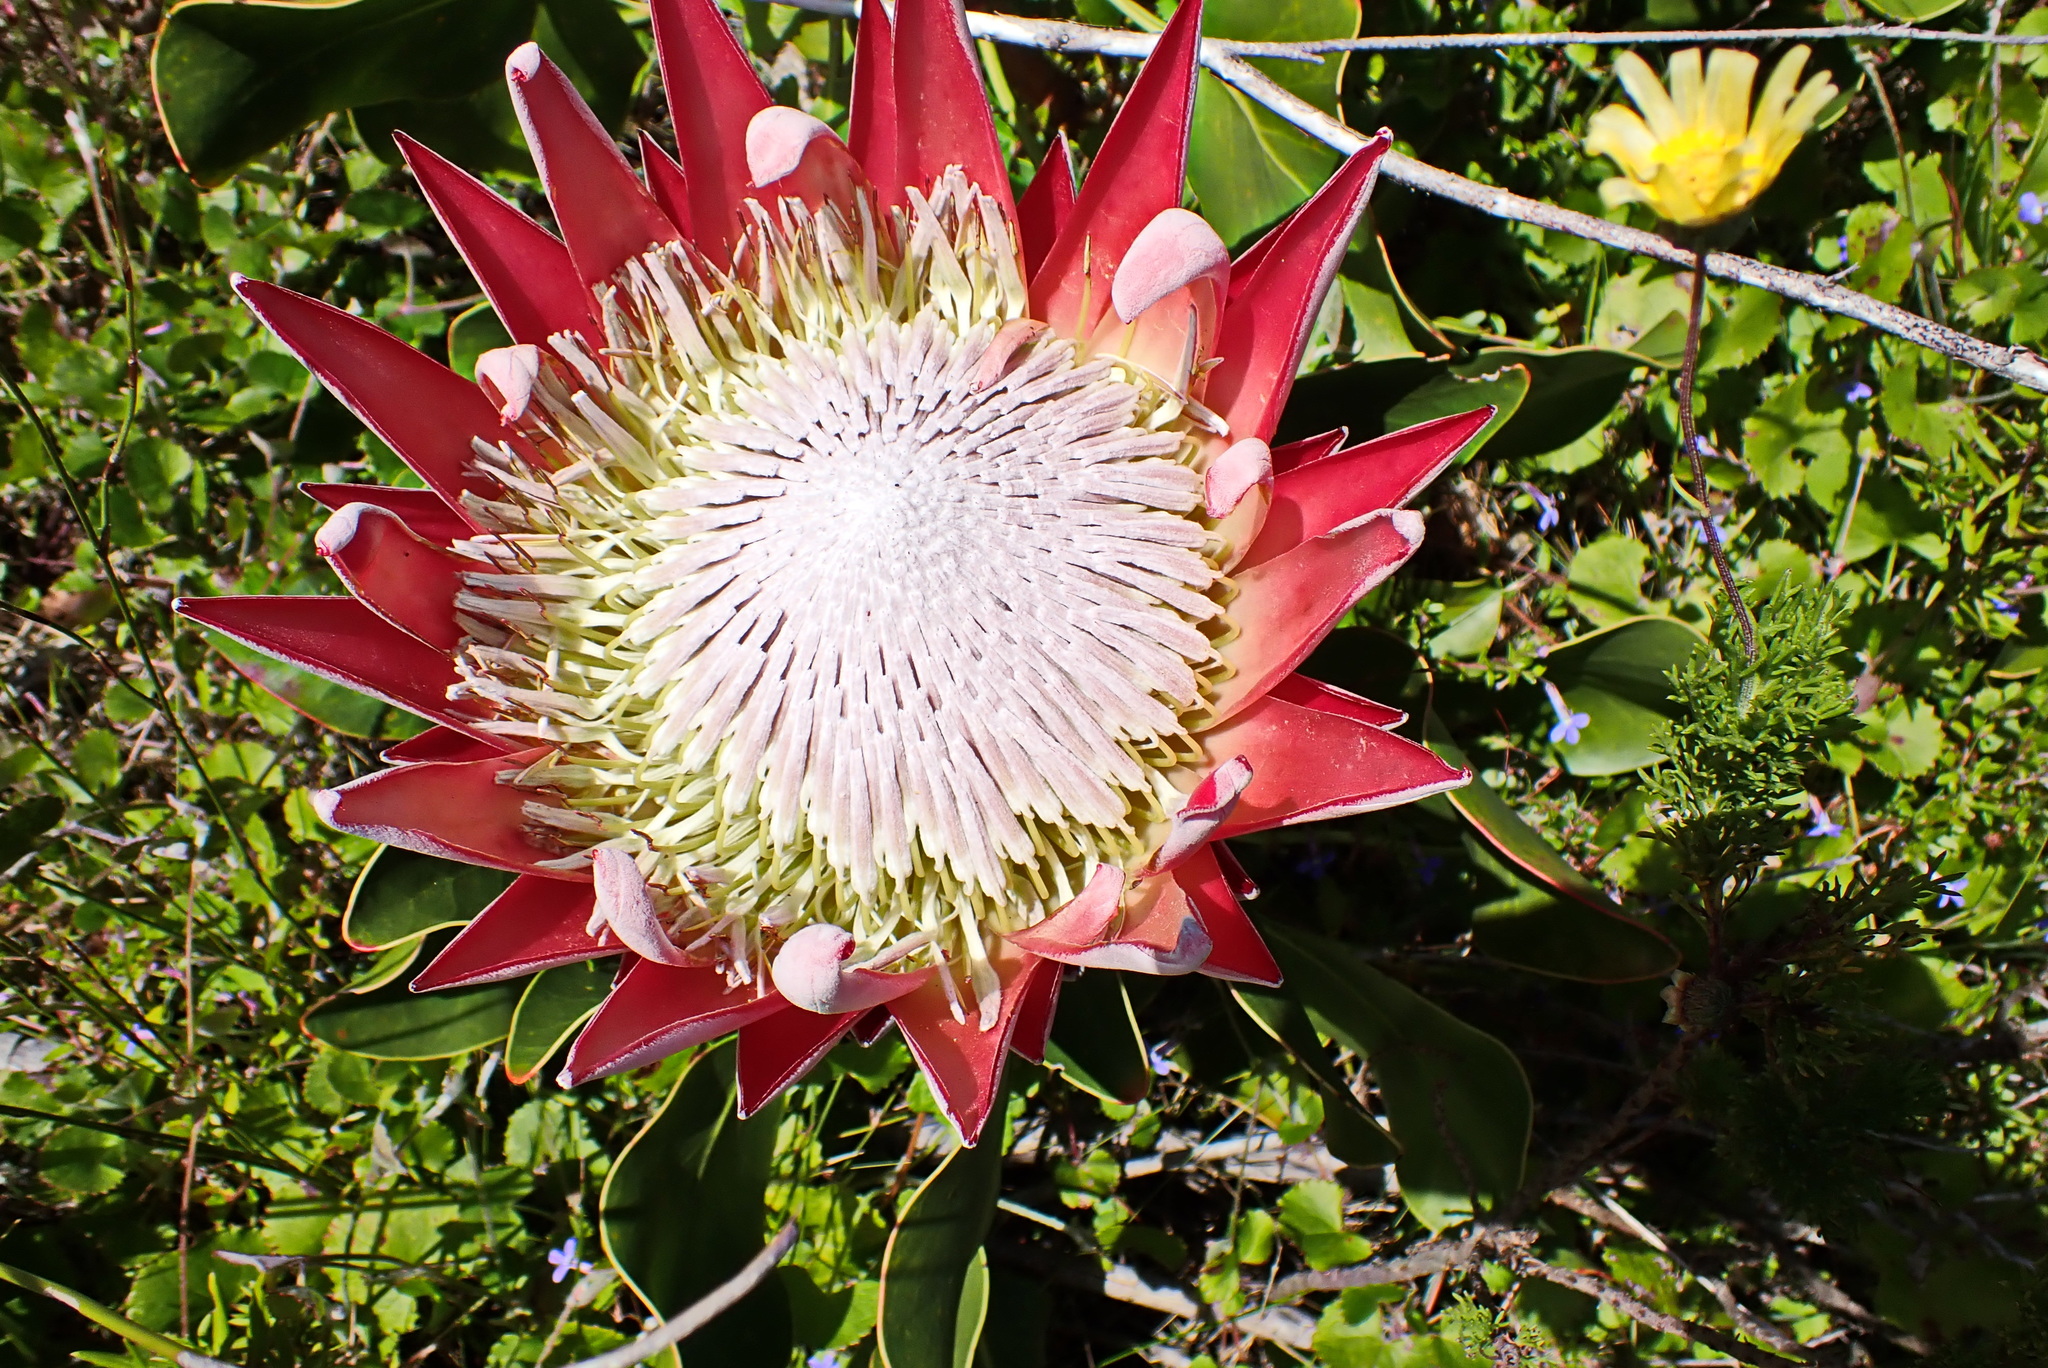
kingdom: Plantae
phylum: Tracheophyta
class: Magnoliopsida
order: Proteales
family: Proteaceae
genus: Protea
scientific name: Protea cynaroides
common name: King protea
